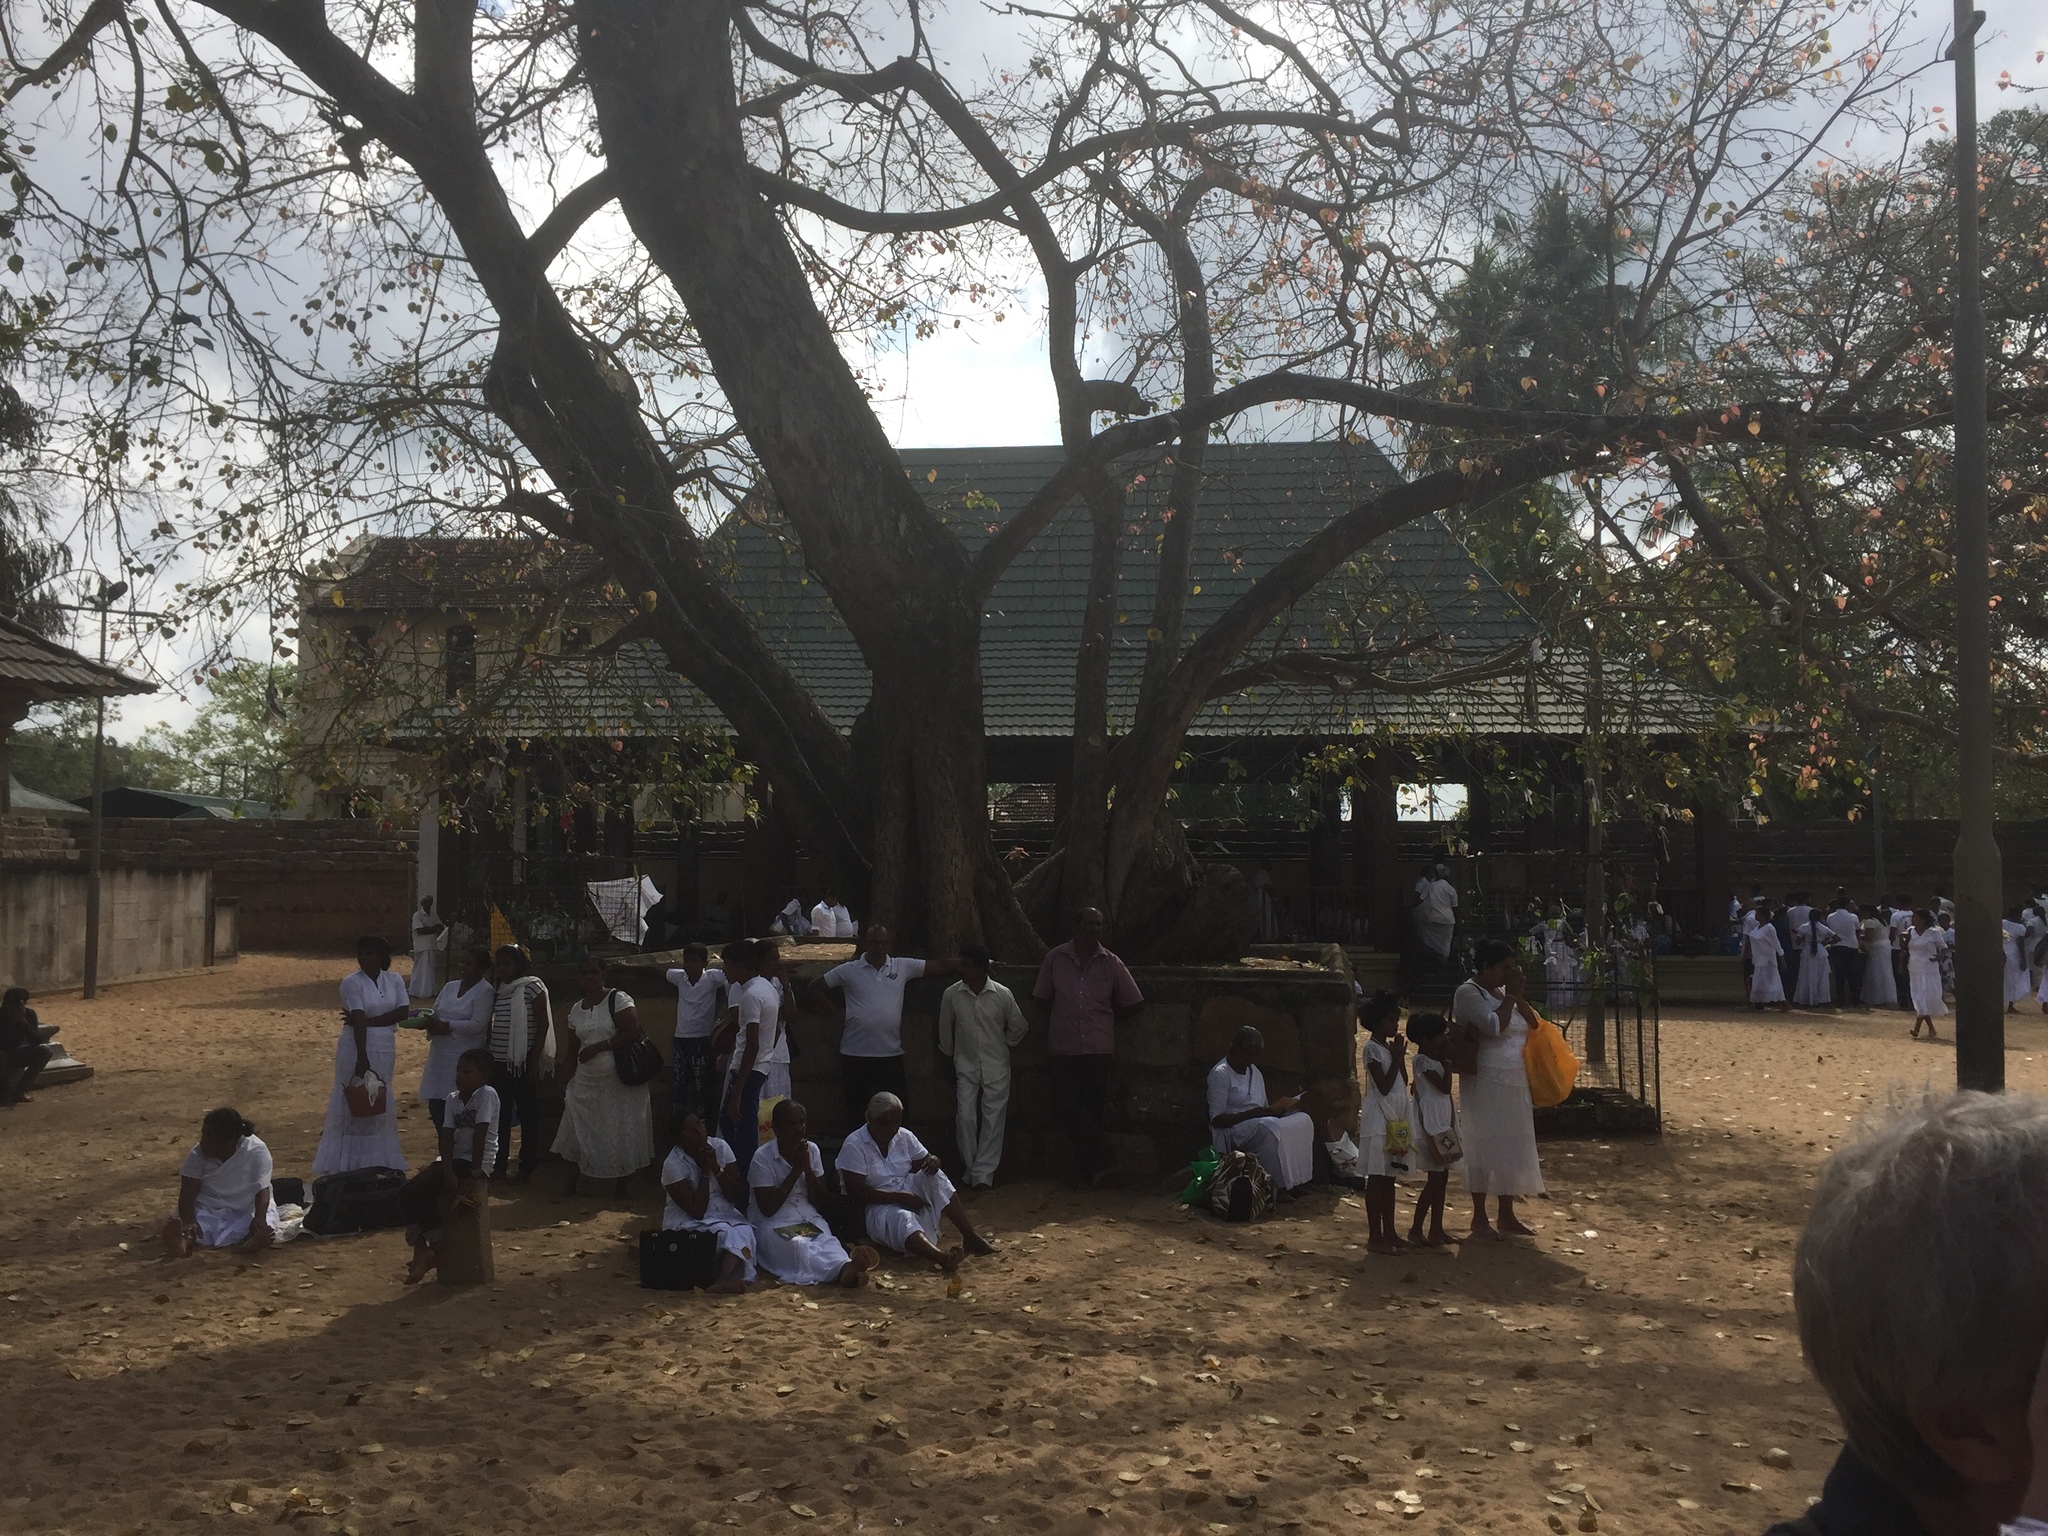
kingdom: Plantae
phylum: Tracheophyta
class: Magnoliopsida
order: Rosales
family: Moraceae
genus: Ficus
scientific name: Ficus religiosa
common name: Bodhi tree
